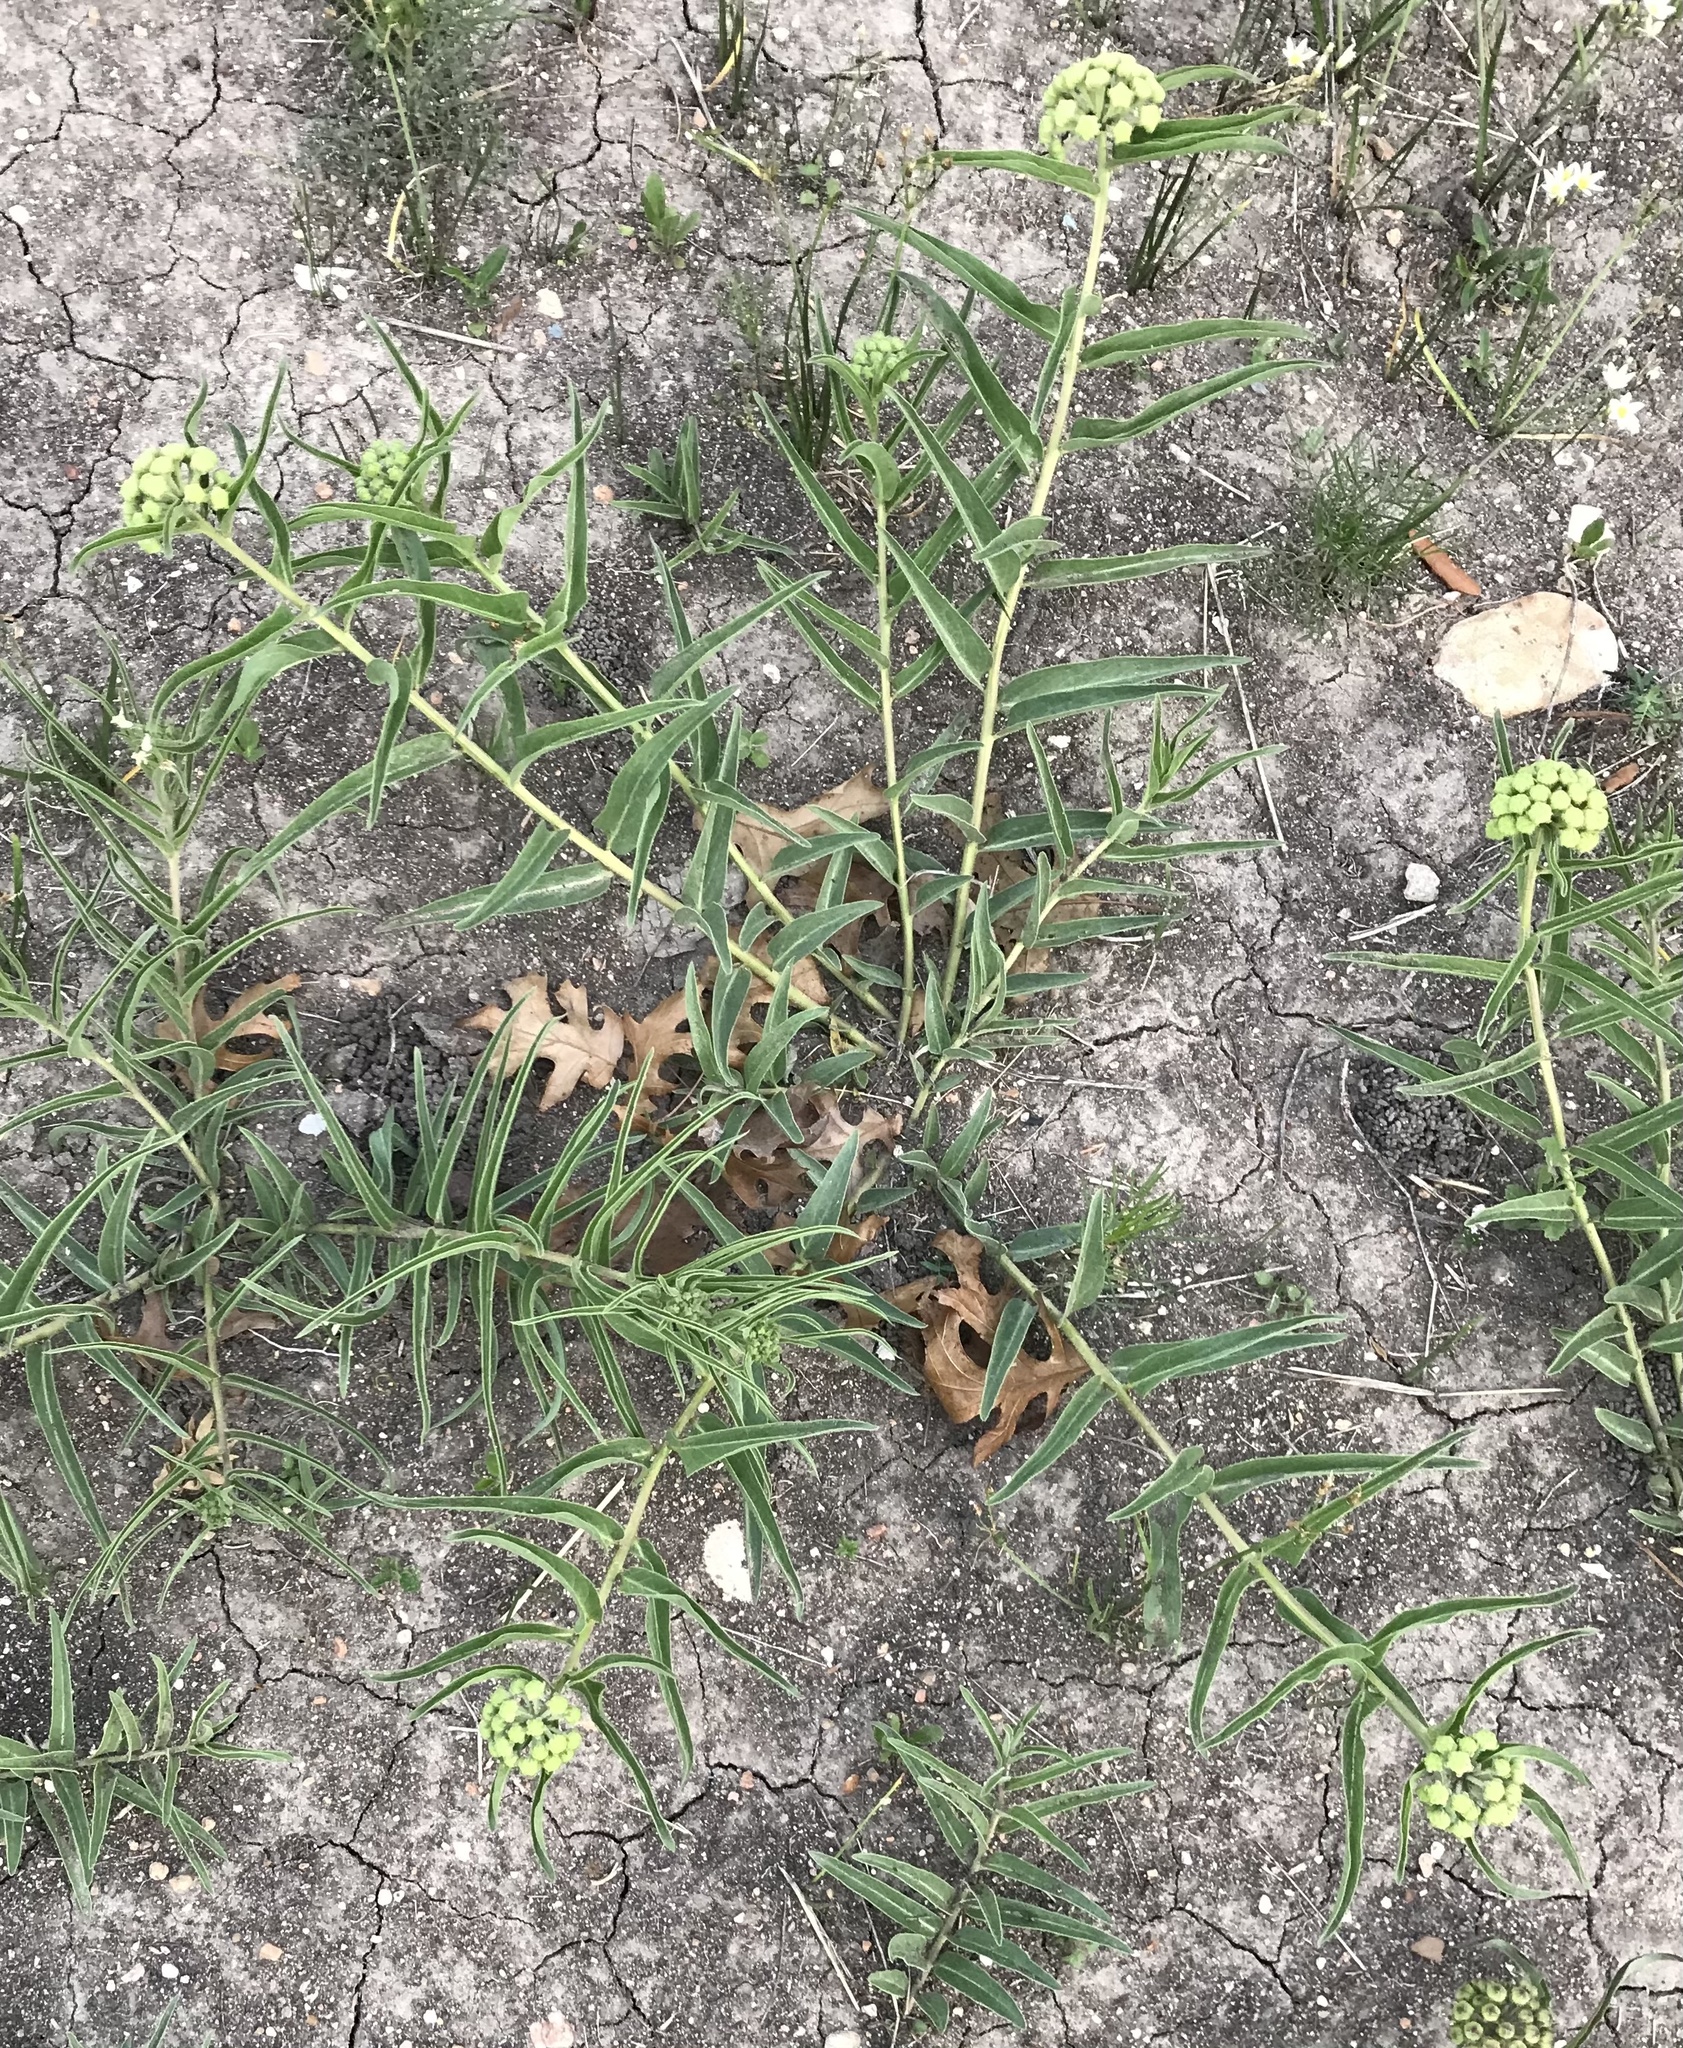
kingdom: Plantae
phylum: Tracheophyta
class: Magnoliopsida
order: Gentianales
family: Apocynaceae
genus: Asclepias
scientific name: Asclepias asperula
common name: Antelope horns
